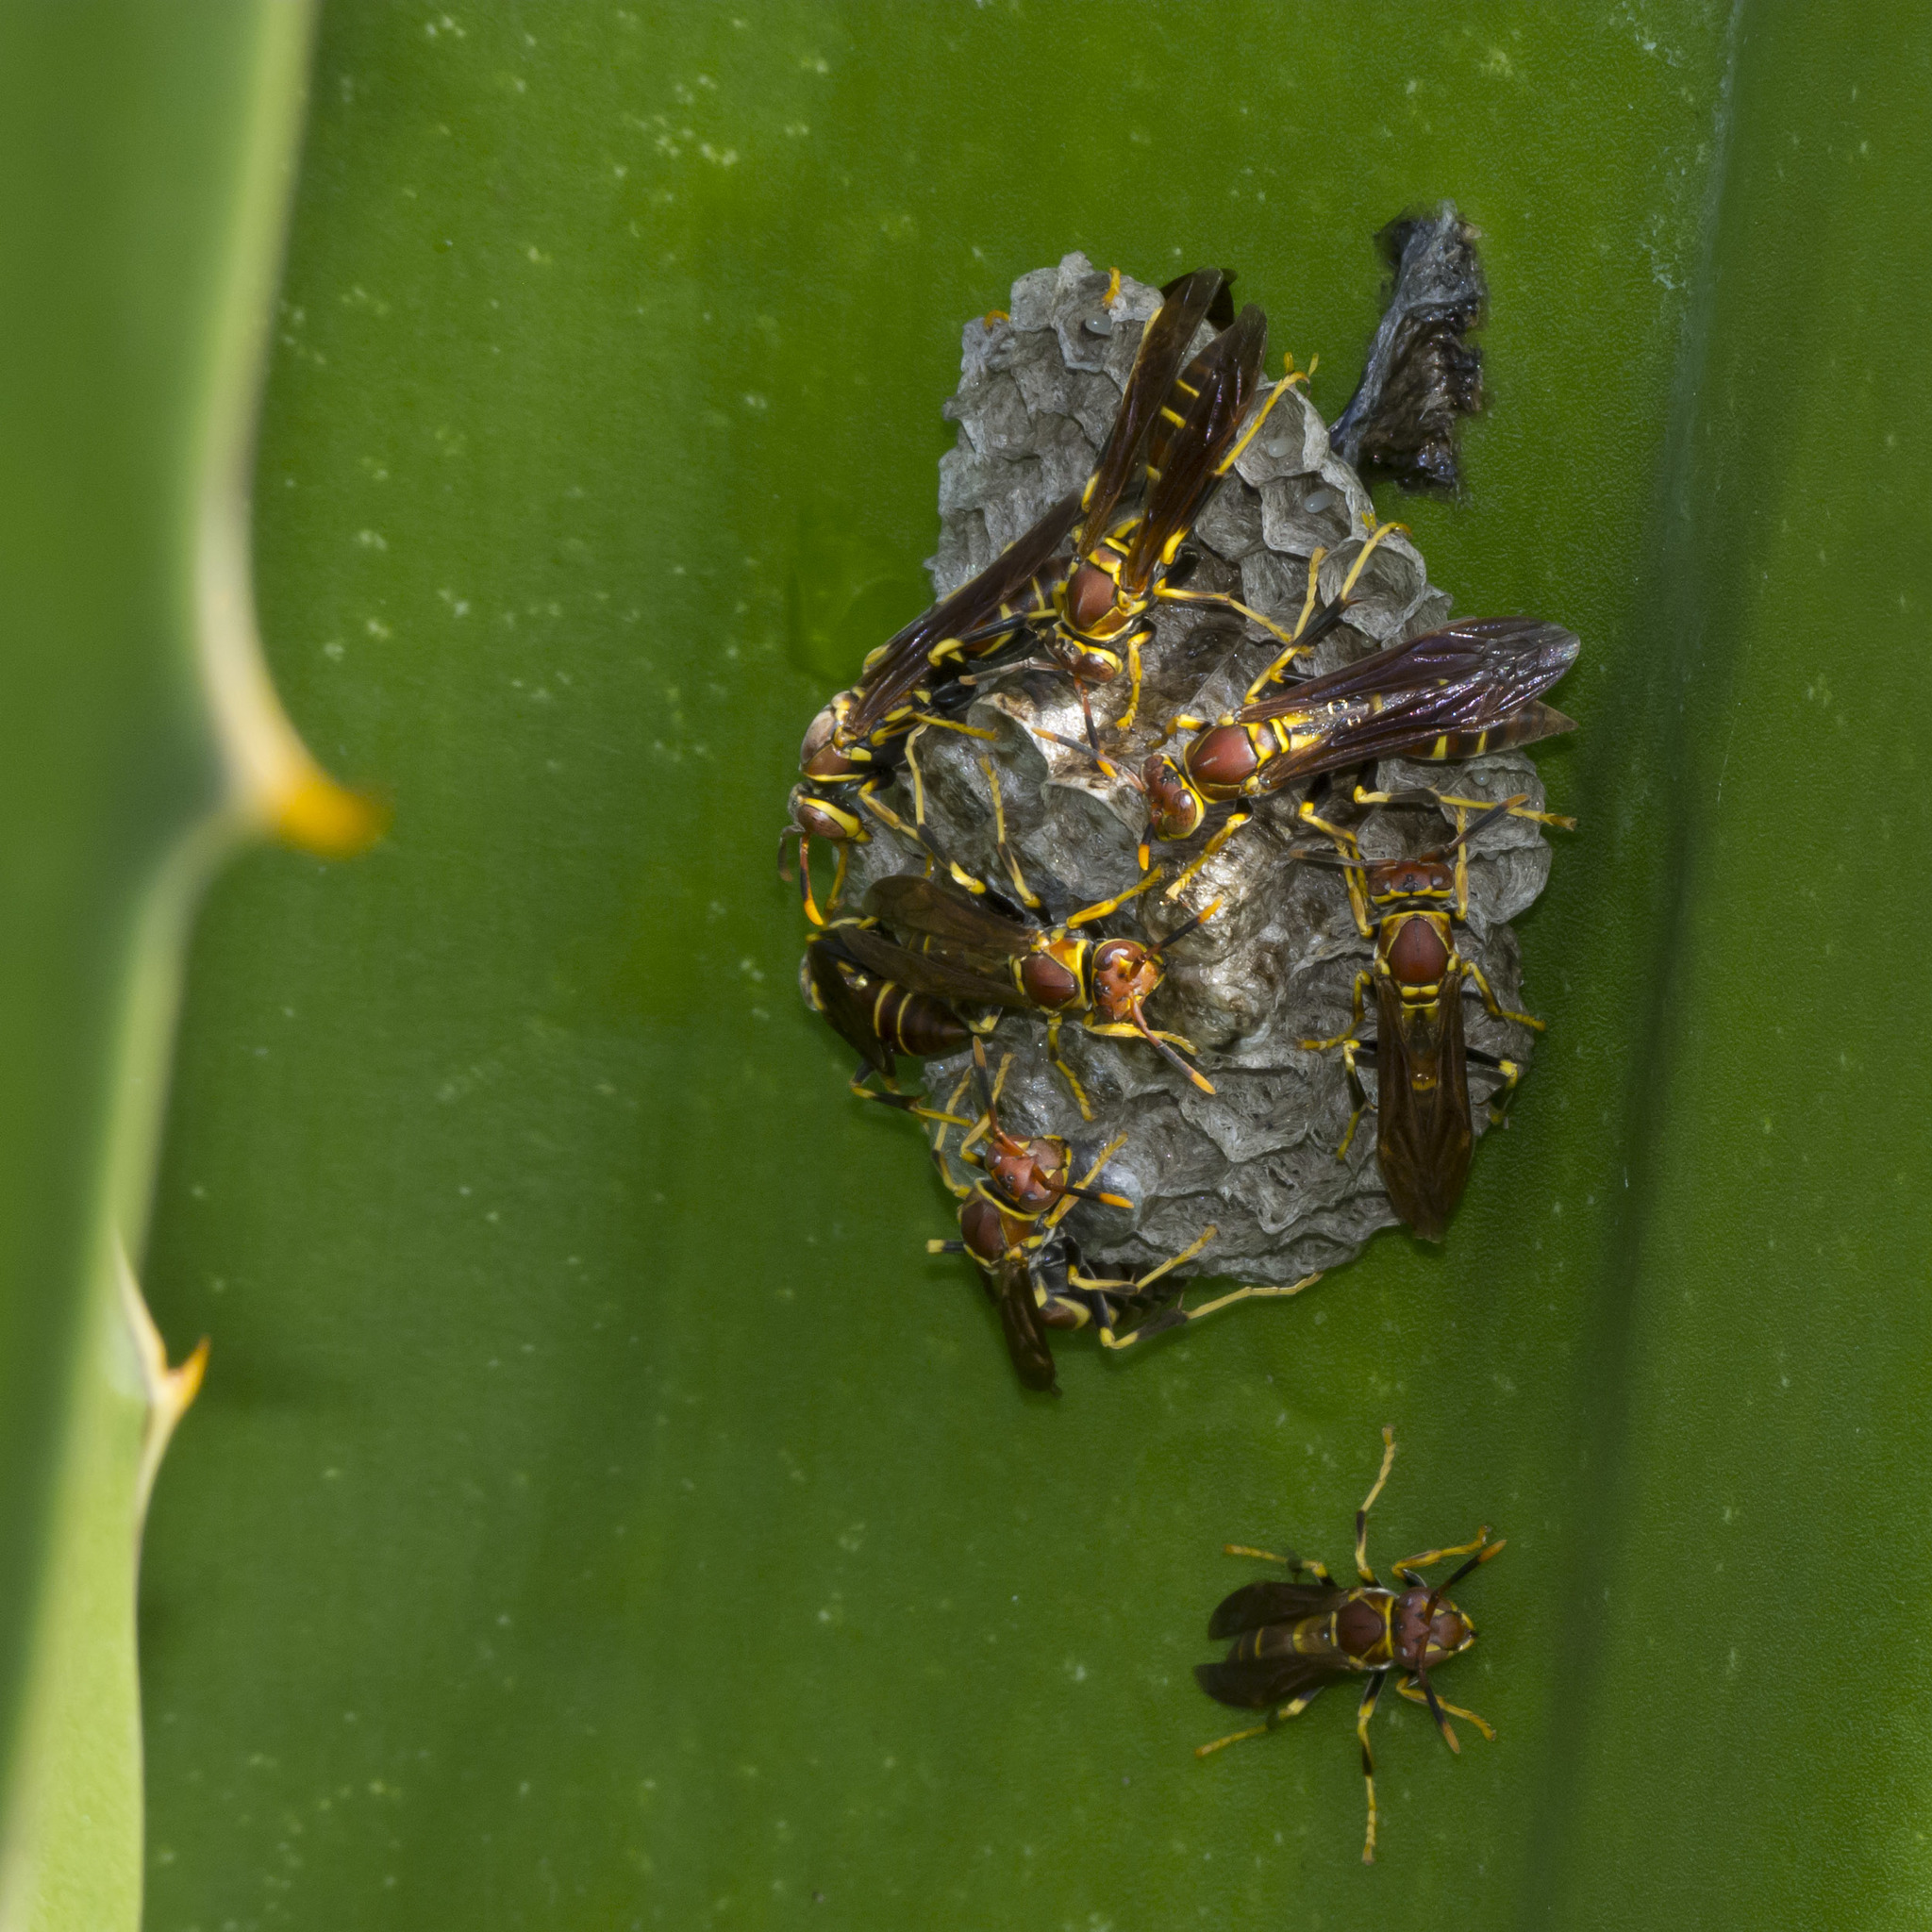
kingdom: Animalia
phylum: Arthropoda
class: Insecta
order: Hymenoptera
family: Eumenidae
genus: Polistes
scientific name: Polistes instabilis
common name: Unstable paper wasp
